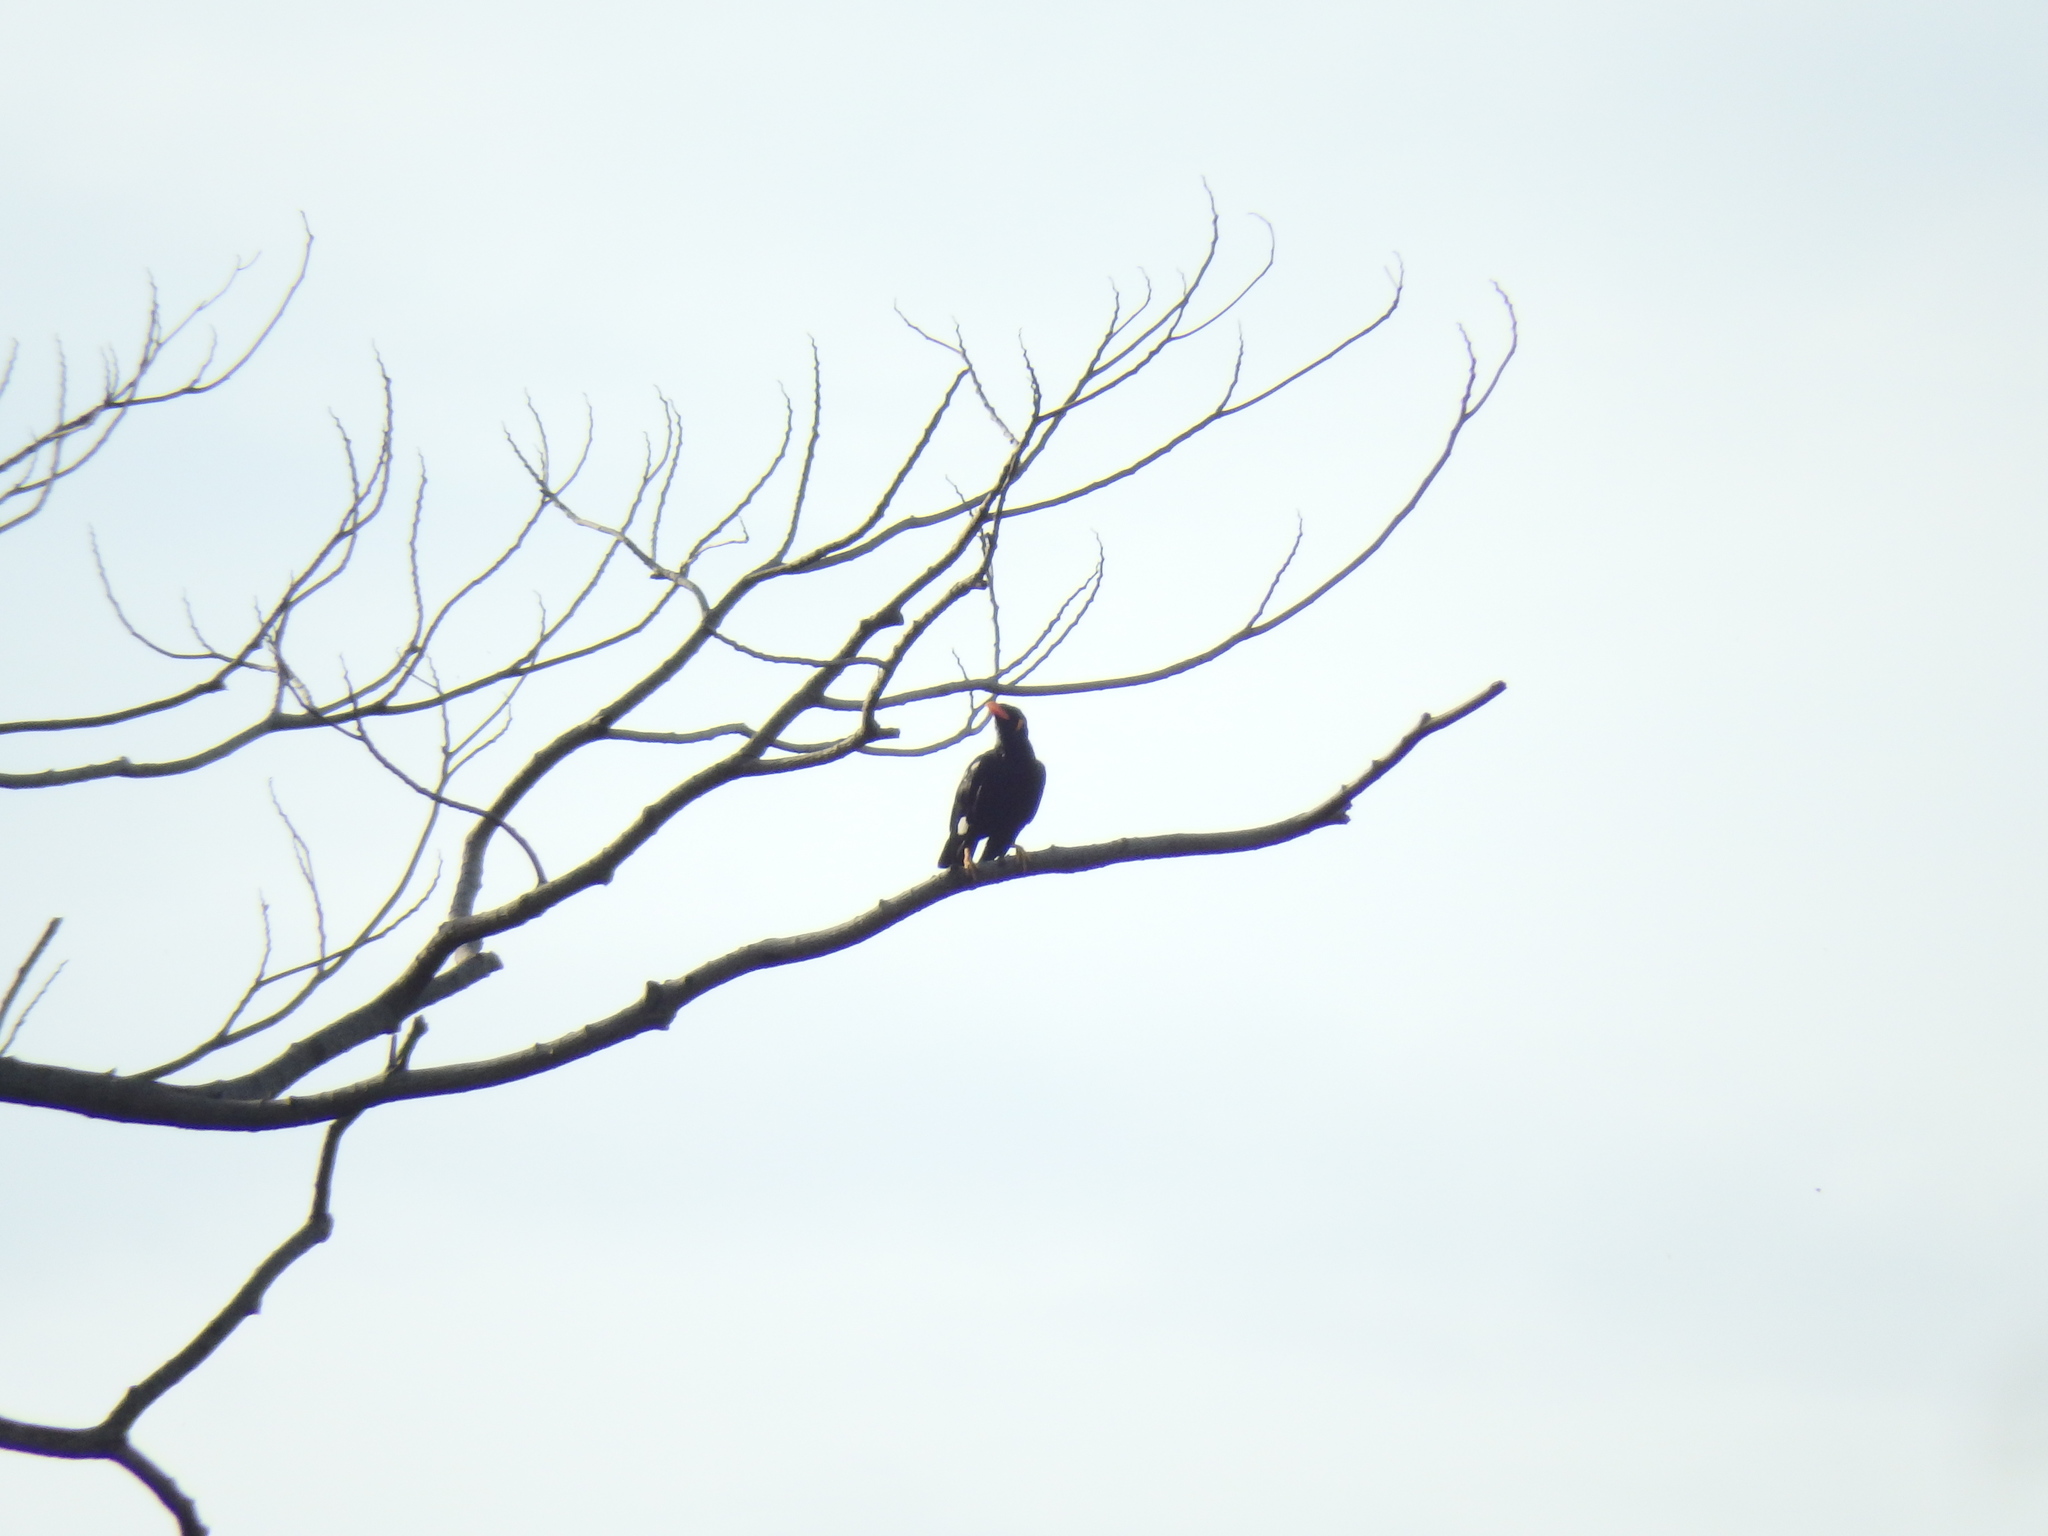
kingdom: Animalia
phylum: Chordata
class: Aves
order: Passeriformes
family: Sturnidae
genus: Gracula
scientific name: Gracula religiosa
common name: Common hill myna
